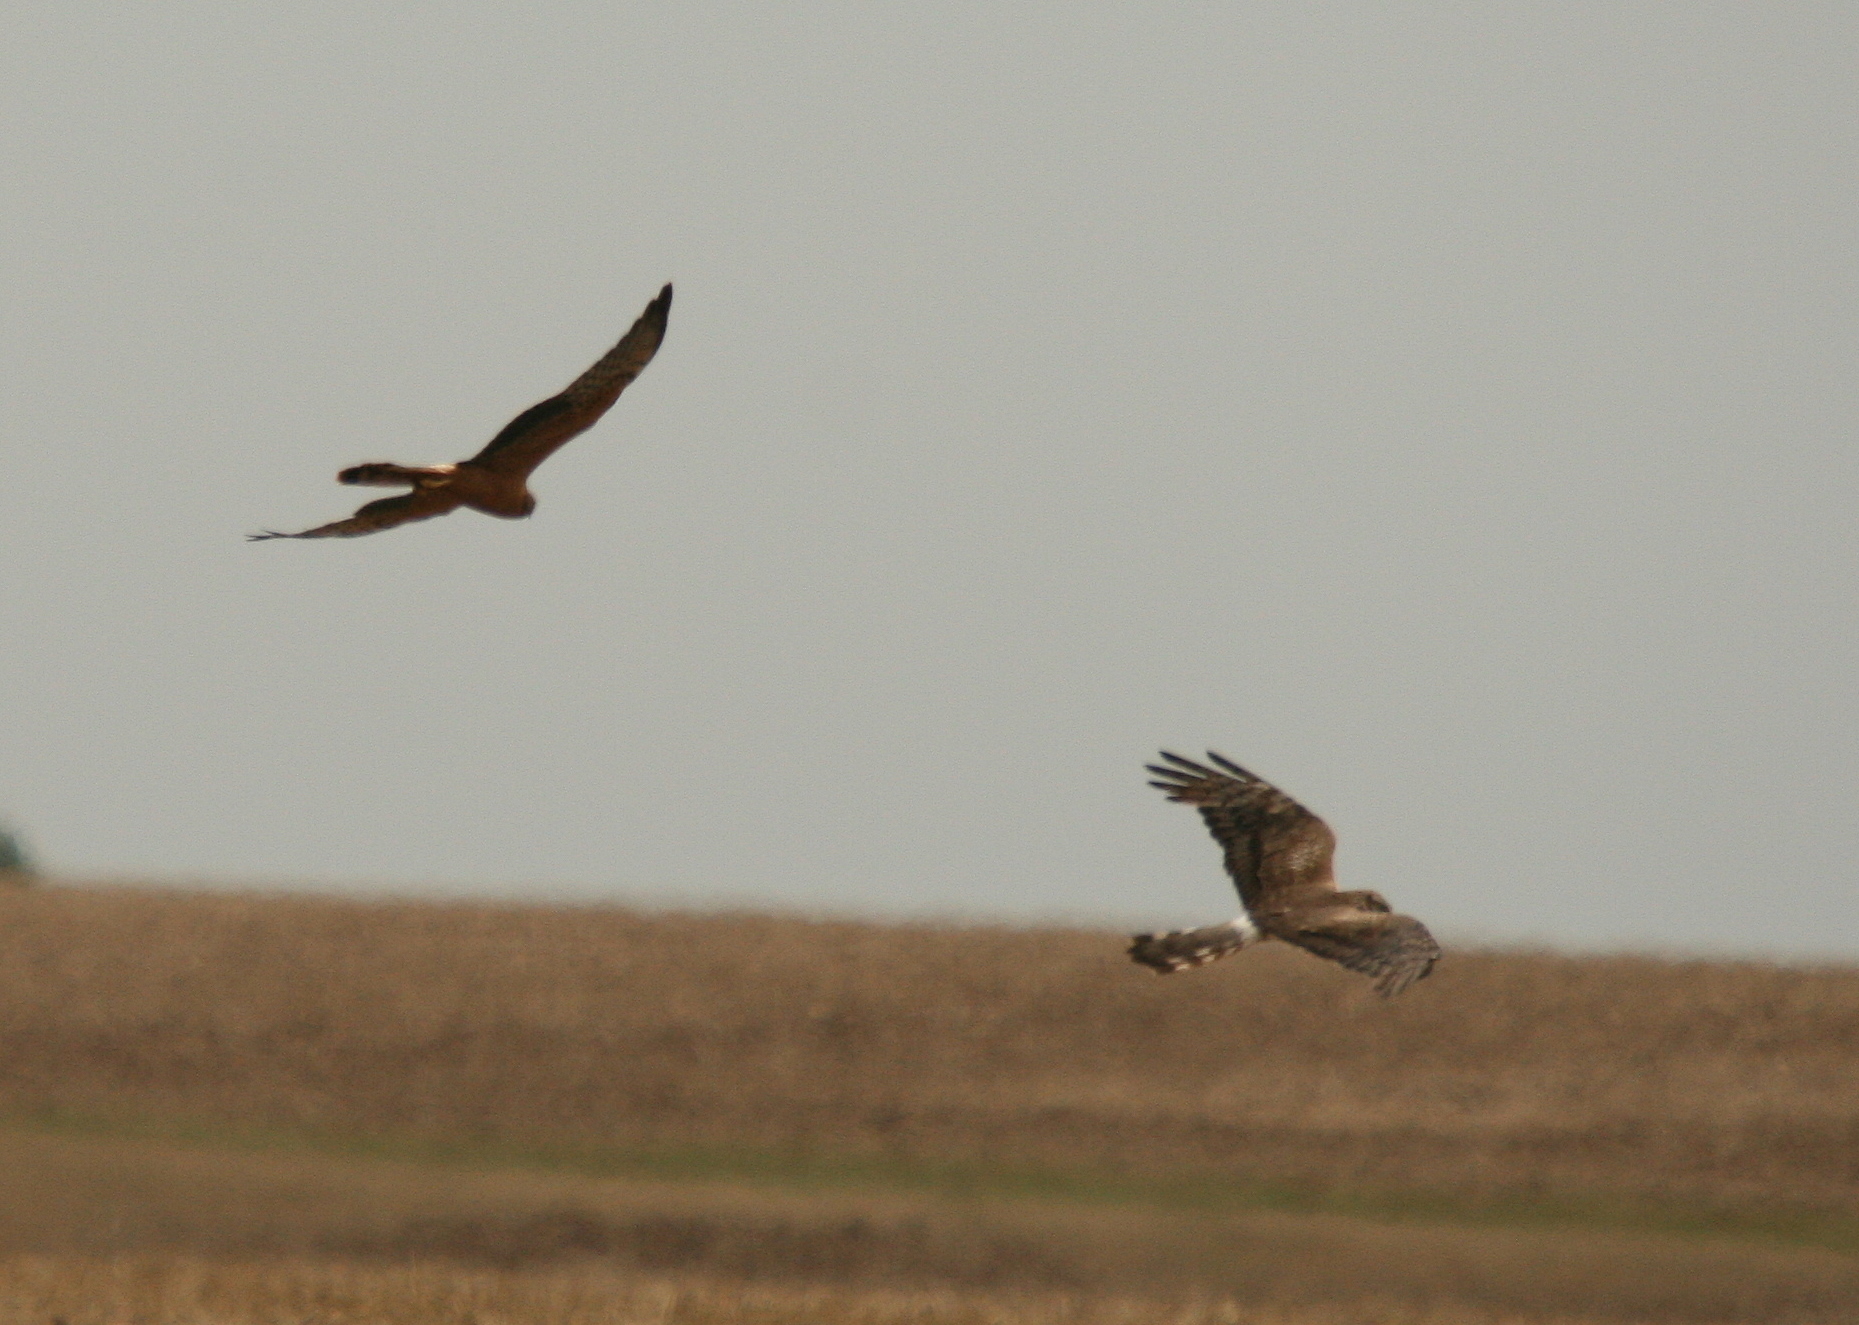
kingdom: Animalia
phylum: Chordata
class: Aves
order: Accipitriformes
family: Accipitridae
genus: Circus
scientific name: Circus pygargus
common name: Montagu's harrier
